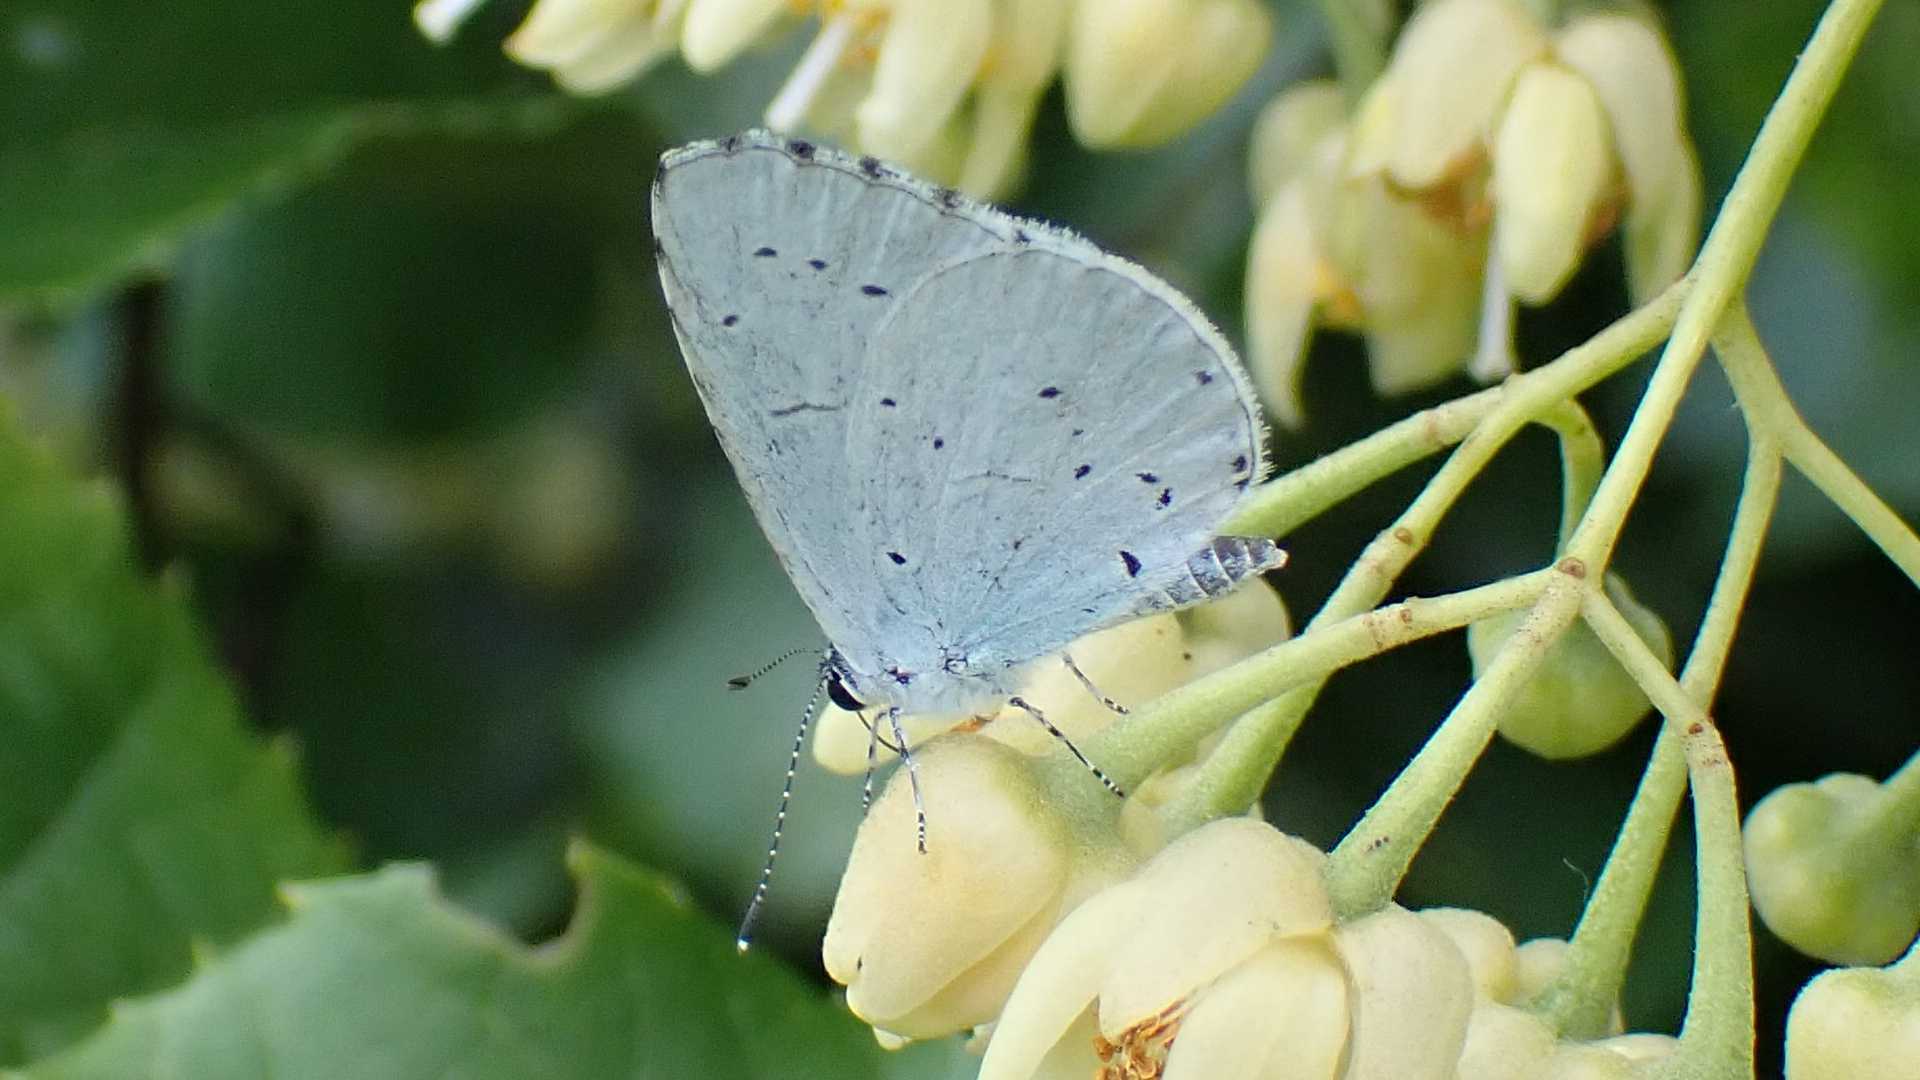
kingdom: Animalia
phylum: Arthropoda
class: Insecta
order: Lepidoptera
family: Lycaenidae
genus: Celastrina
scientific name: Celastrina argiolus
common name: Holly blue
